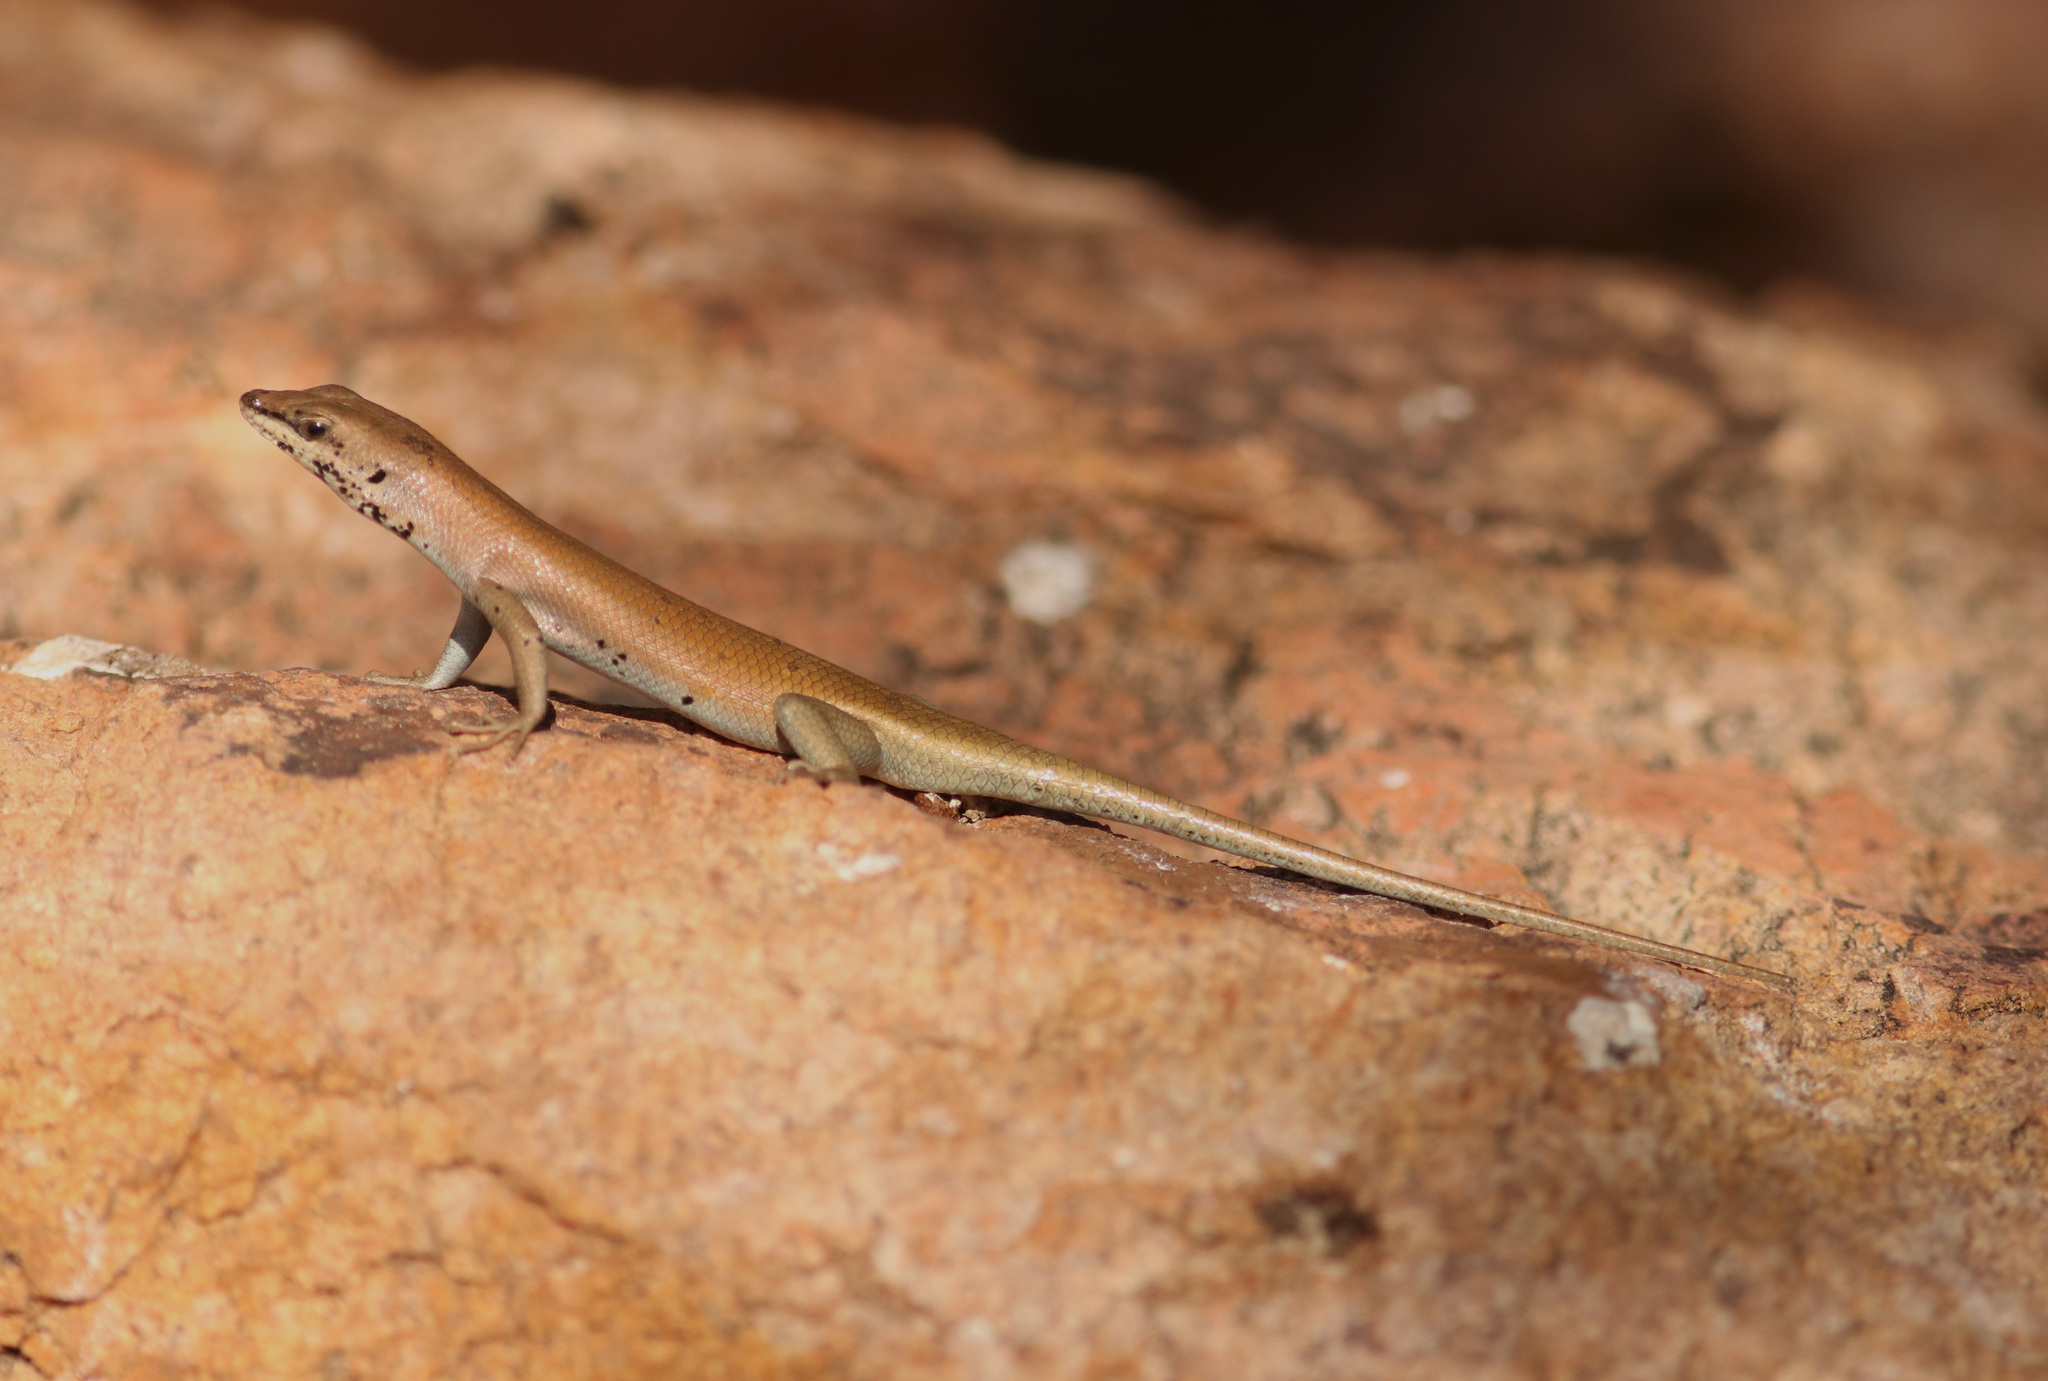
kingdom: Animalia
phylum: Chordata
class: Squamata
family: Scincidae
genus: Trachylepis
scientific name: Trachylepis sulcata
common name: Western rock skink
